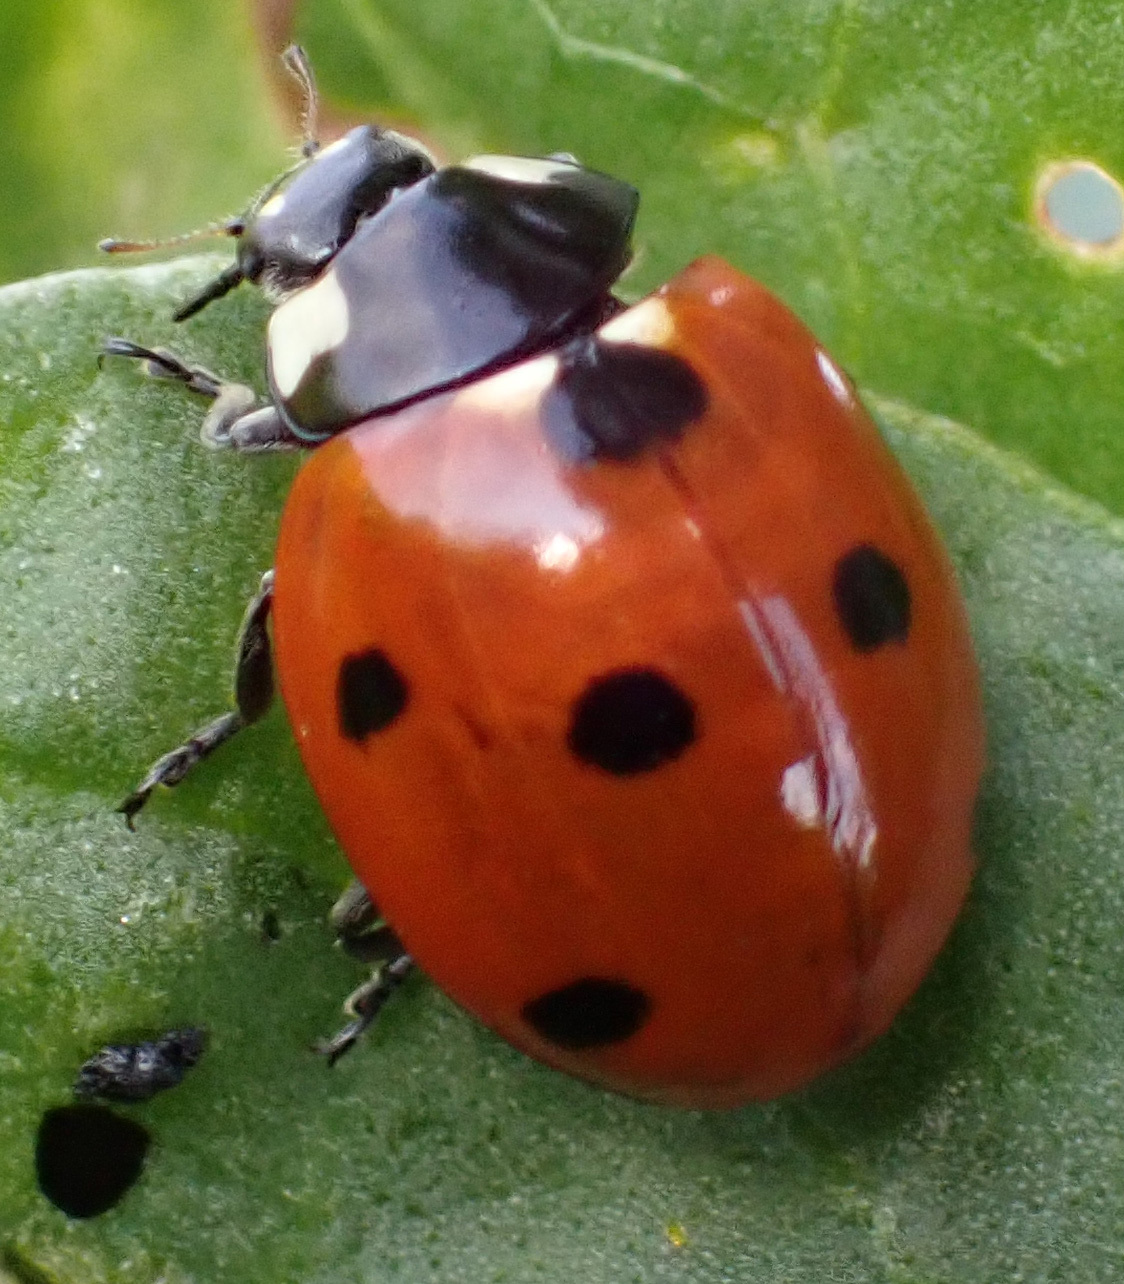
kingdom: Animalia
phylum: Arthropoda
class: Insecta
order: Coleoptera
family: Coccinellidae
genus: Coccinella
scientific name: Coccinella septempunctata
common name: Sevenspotted lady beetle
